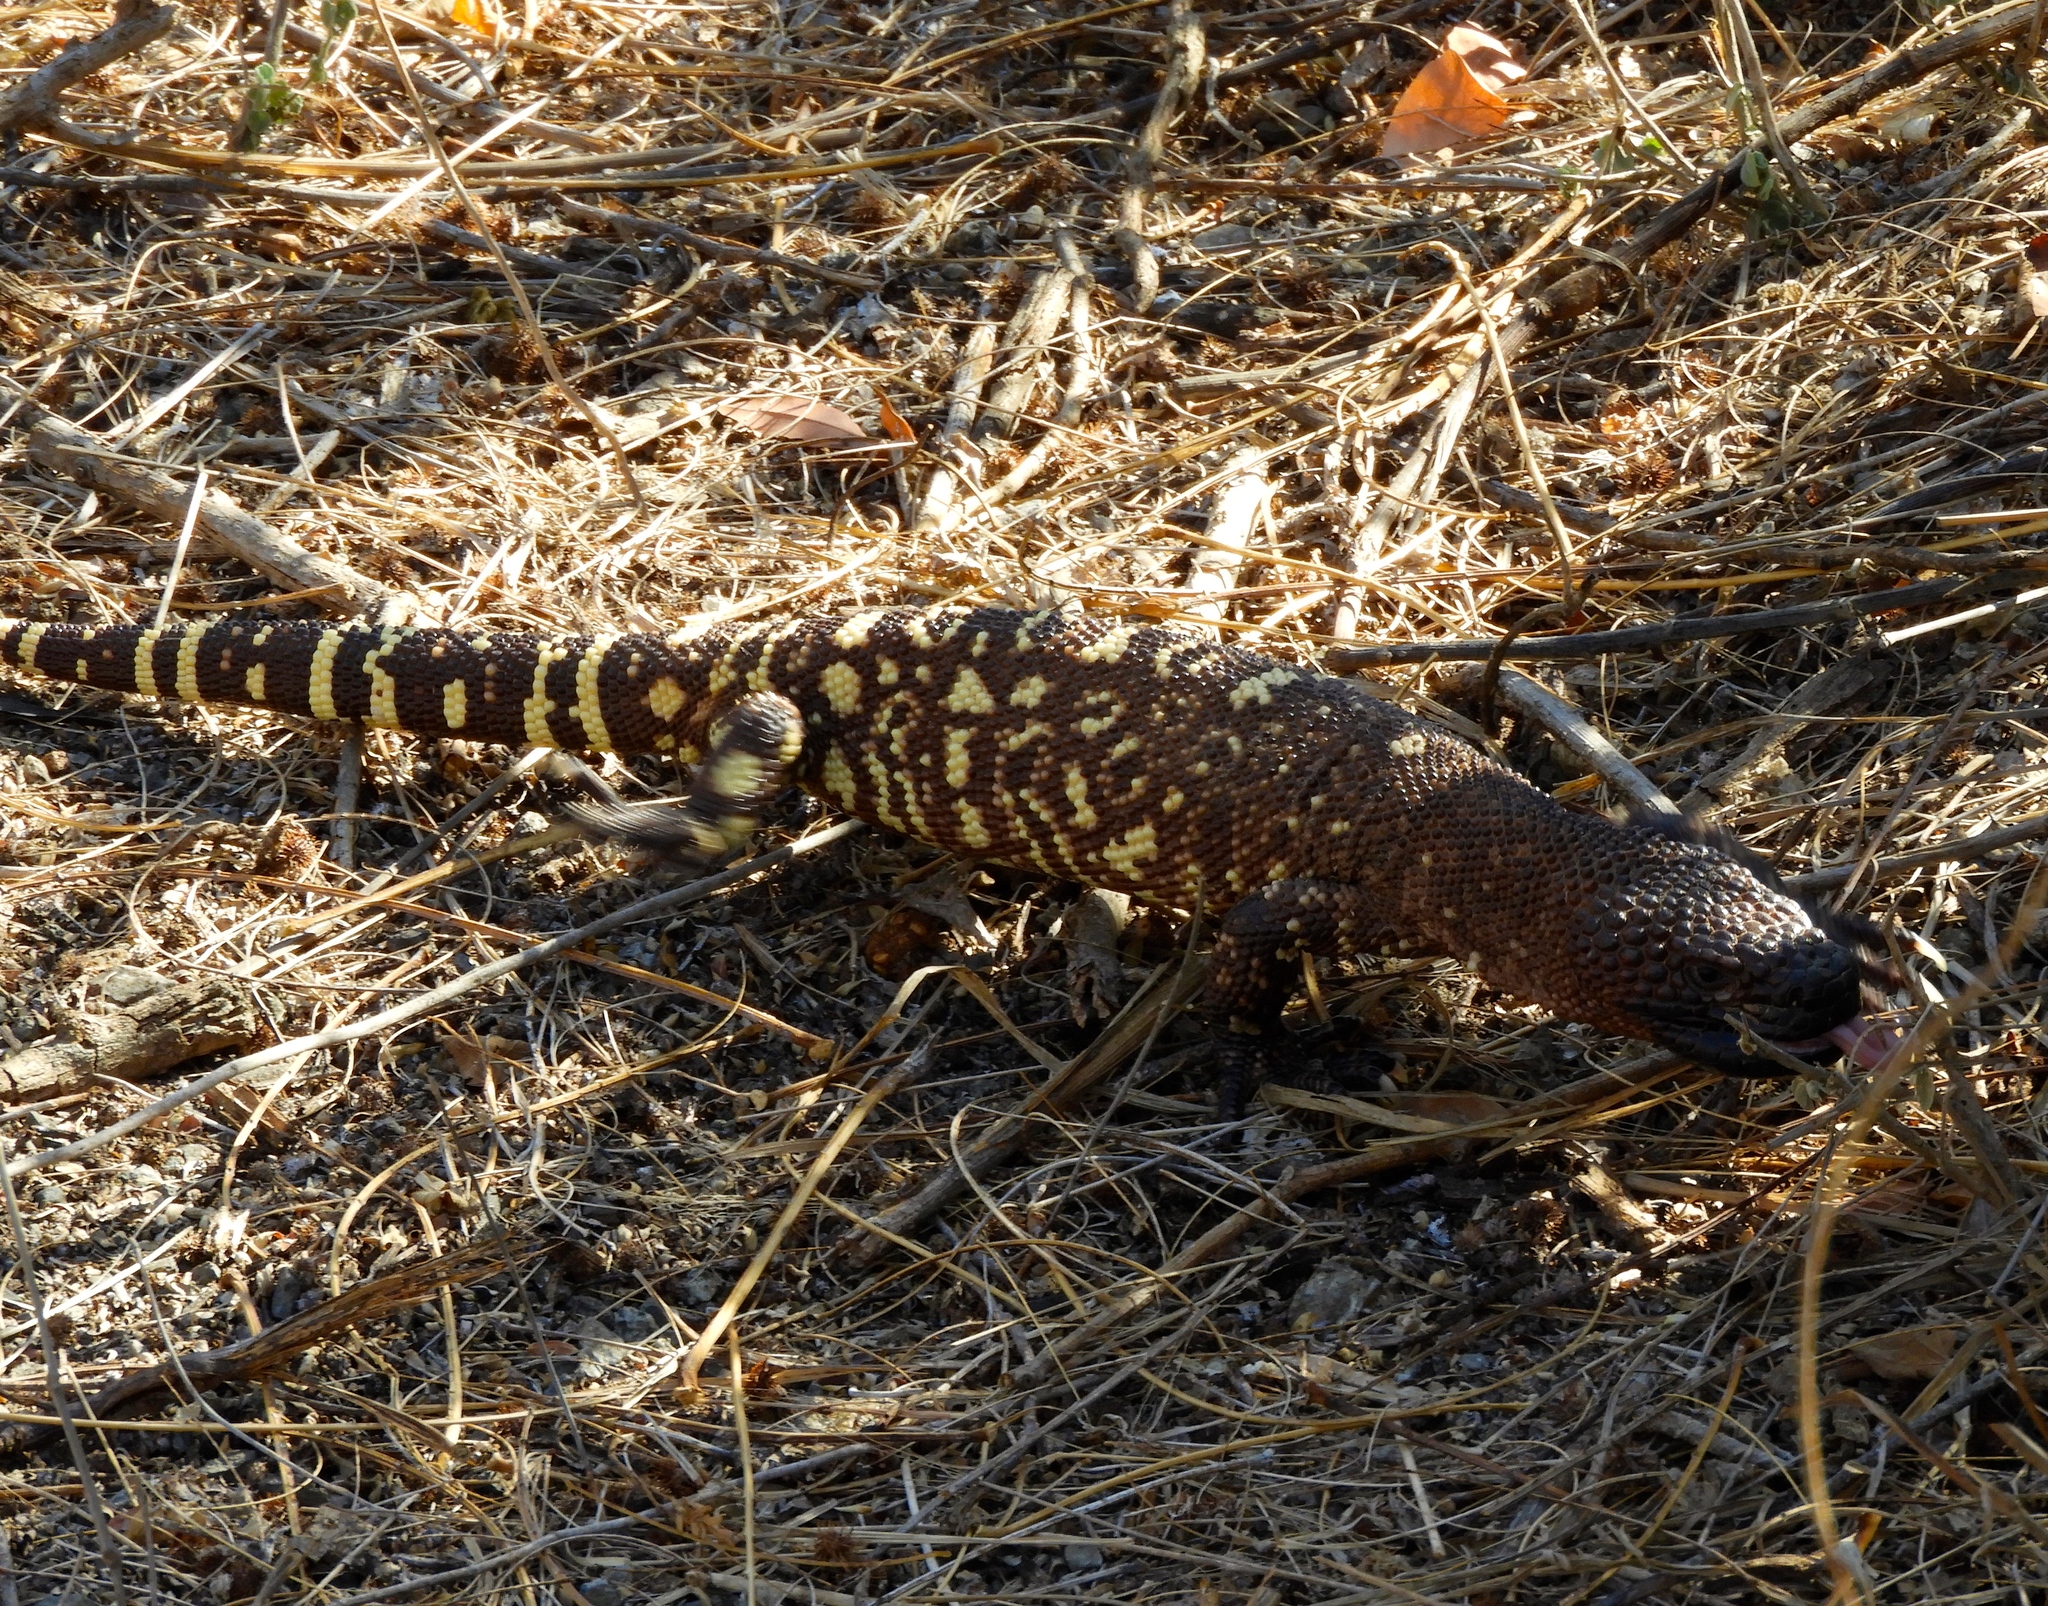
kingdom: Animalia
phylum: Chordata
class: Squamata
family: Helodermatidae
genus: Heloderma
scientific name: Heloderma horridum
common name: Mexican beaded lizard
